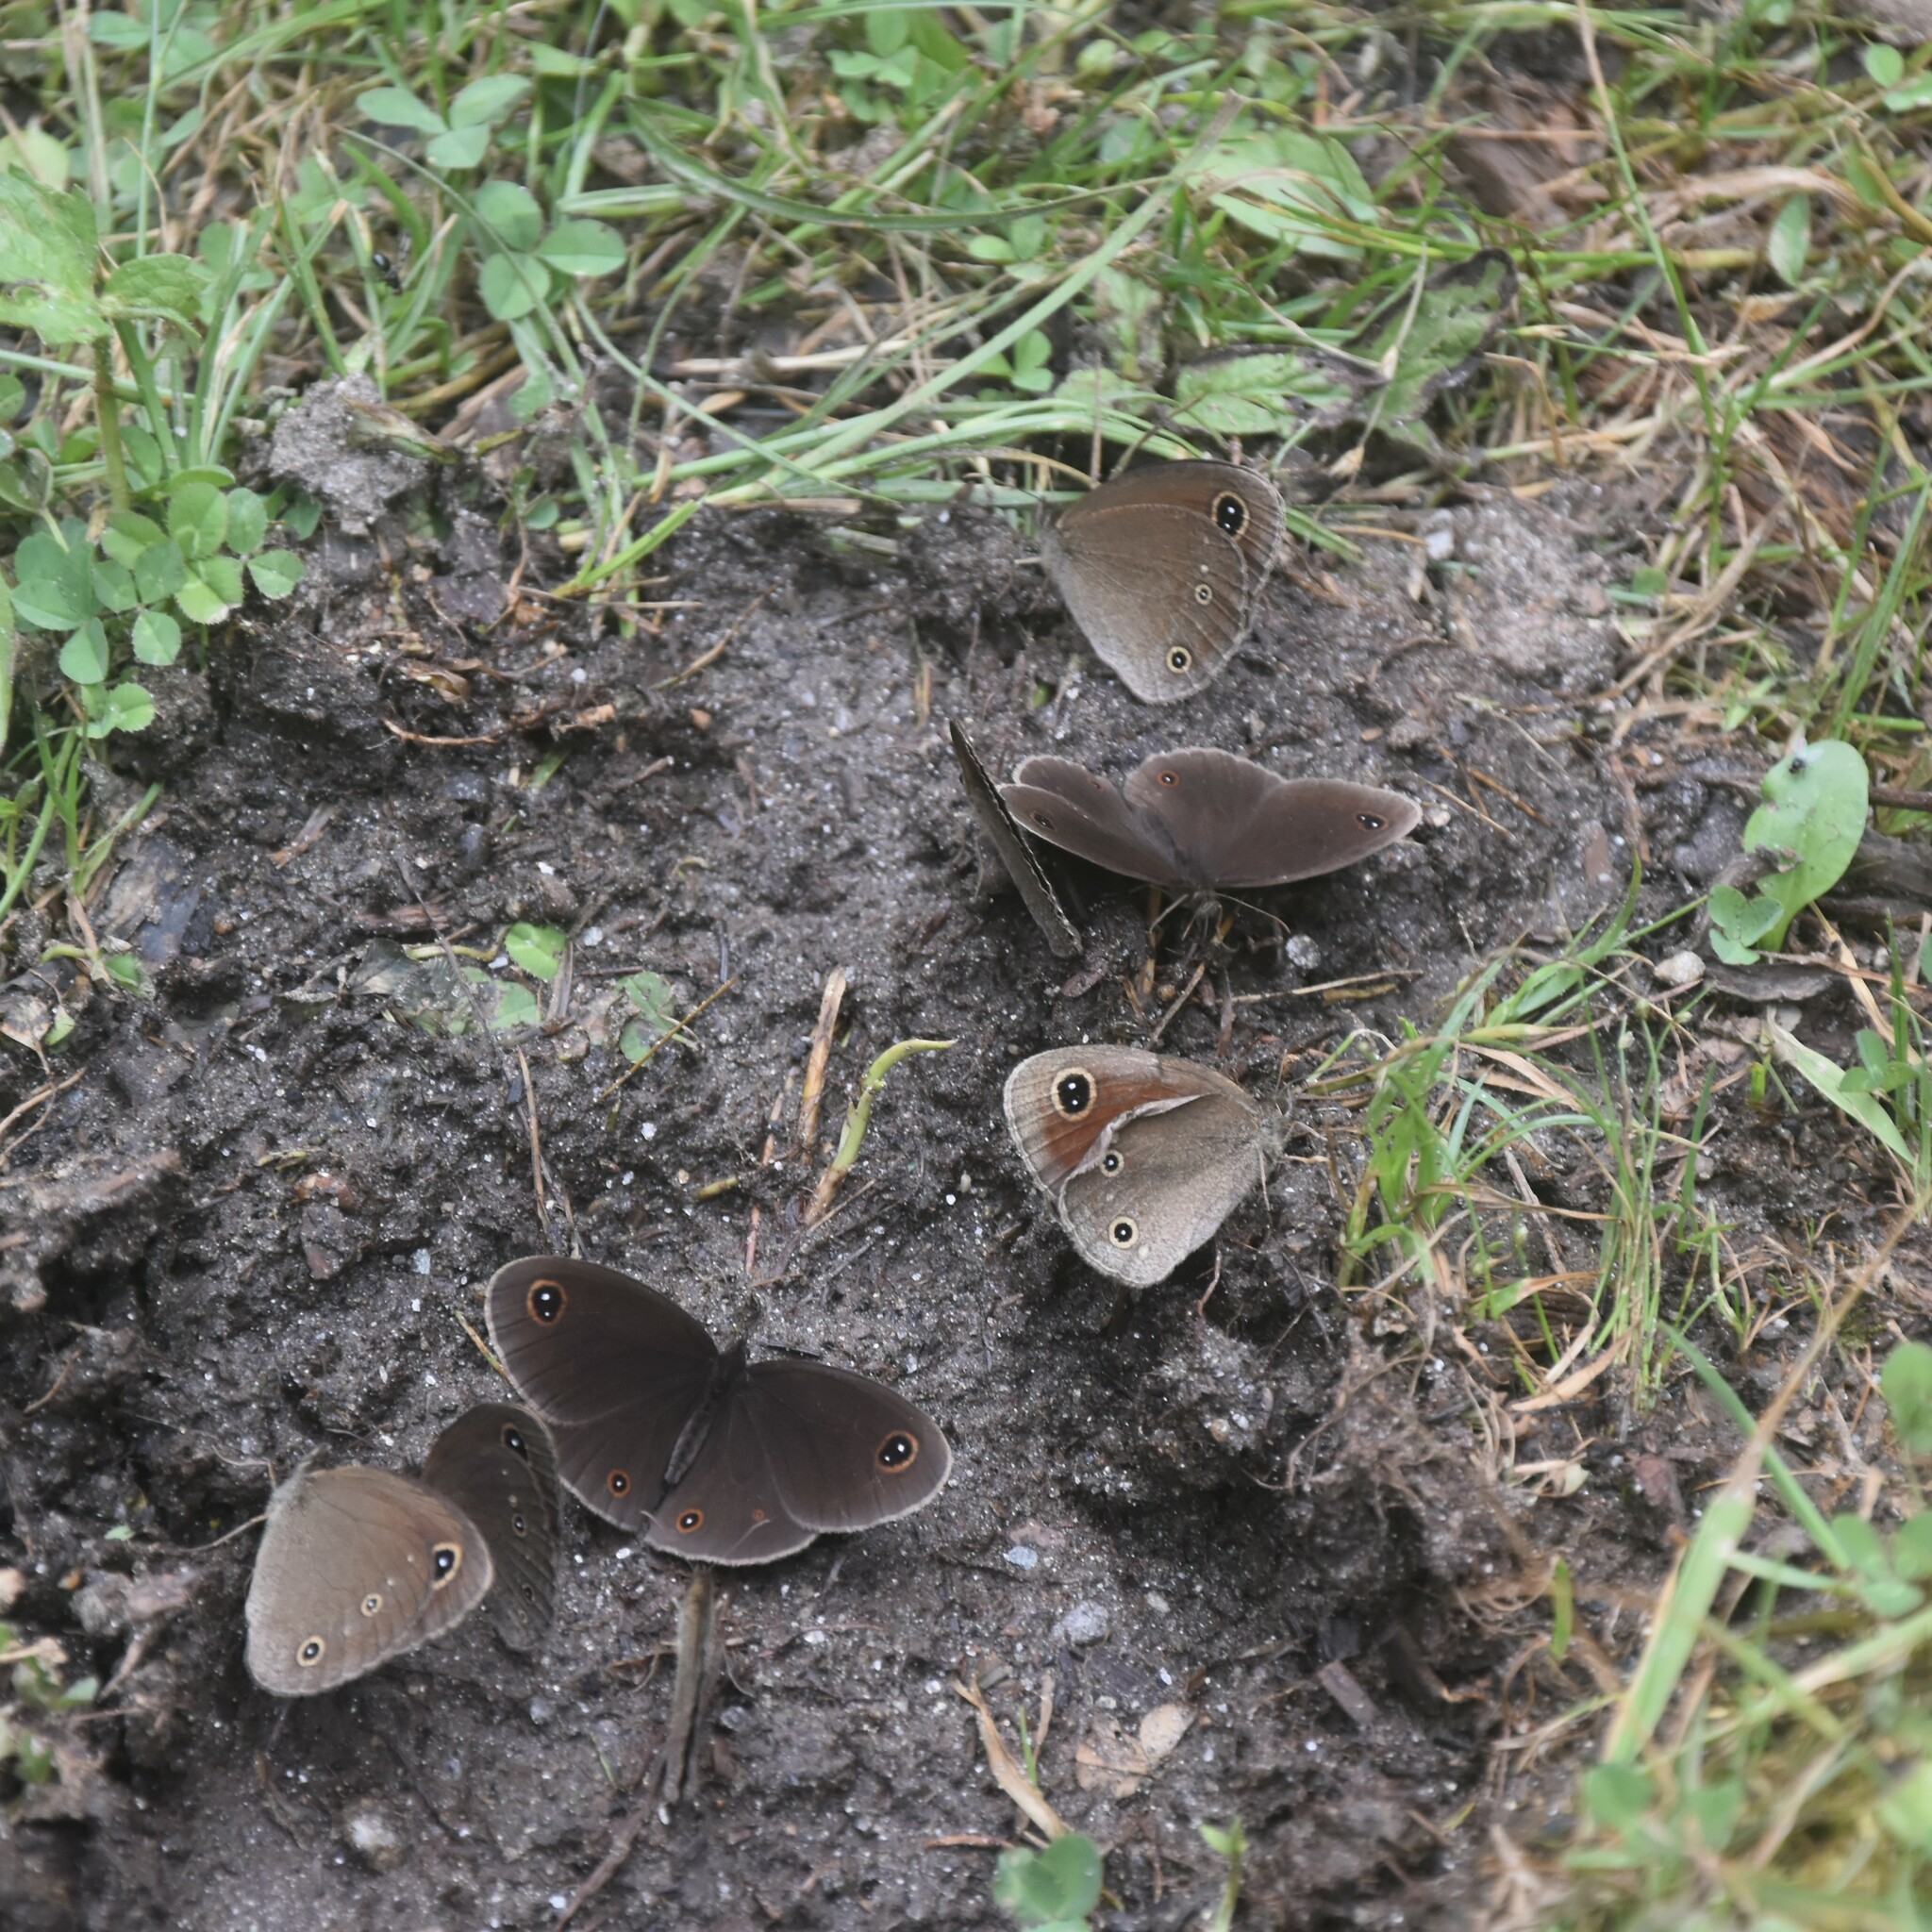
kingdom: Animalia
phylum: Arthropoda
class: Insecta
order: Lepidoptera
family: Nymphalidae
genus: Callerebia
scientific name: Callerebia nirmala
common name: Common argus
